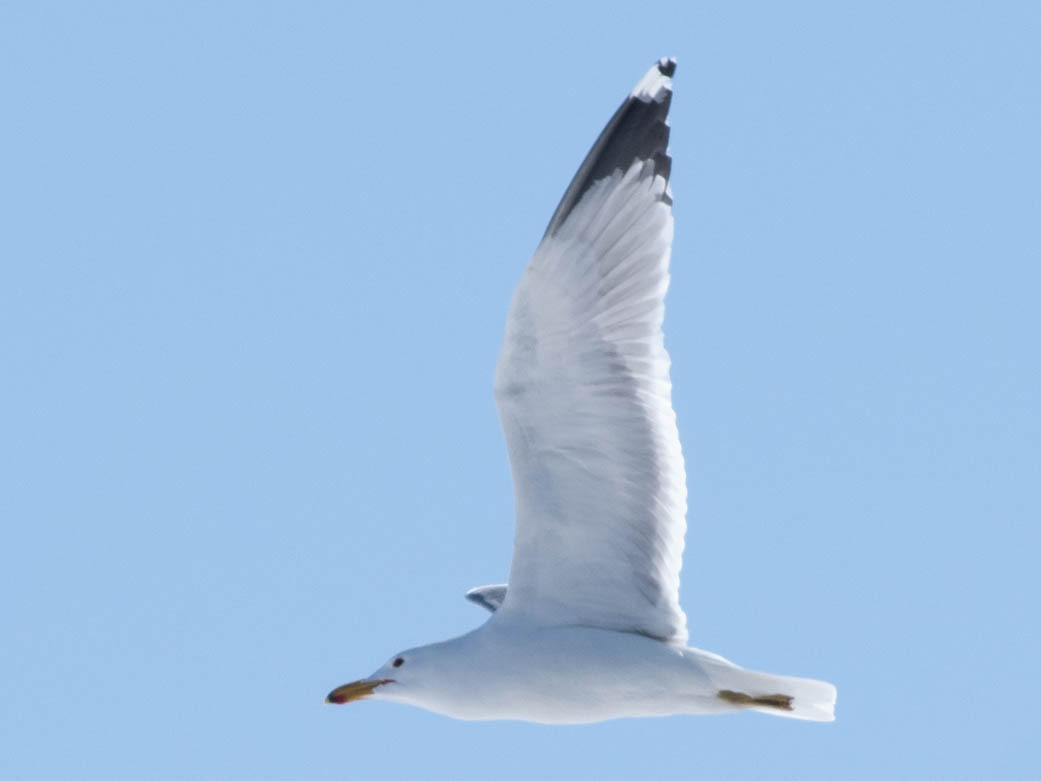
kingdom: Animalia
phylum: Chordata
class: Aves
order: Charadriiformes
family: Laridae
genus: Larus
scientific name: Larus californicus
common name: California gull
